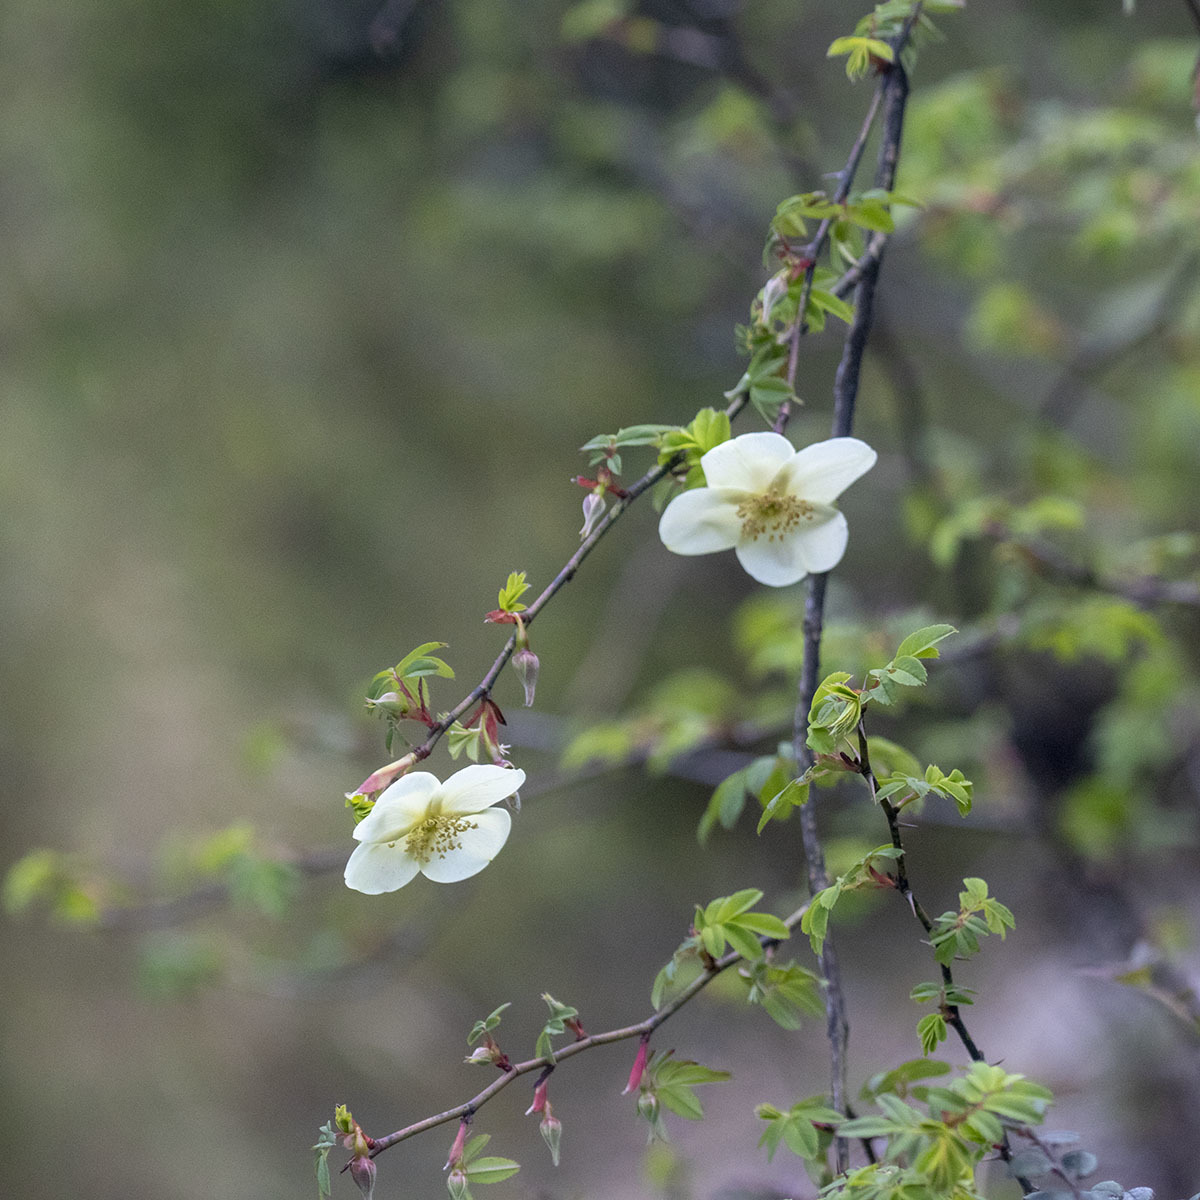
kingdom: Plantae
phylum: Tracheophyta
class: Magnoliopsida
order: Rosales
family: Rosaceae
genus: Rosa
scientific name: Rosa sericea
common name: Silky rose
